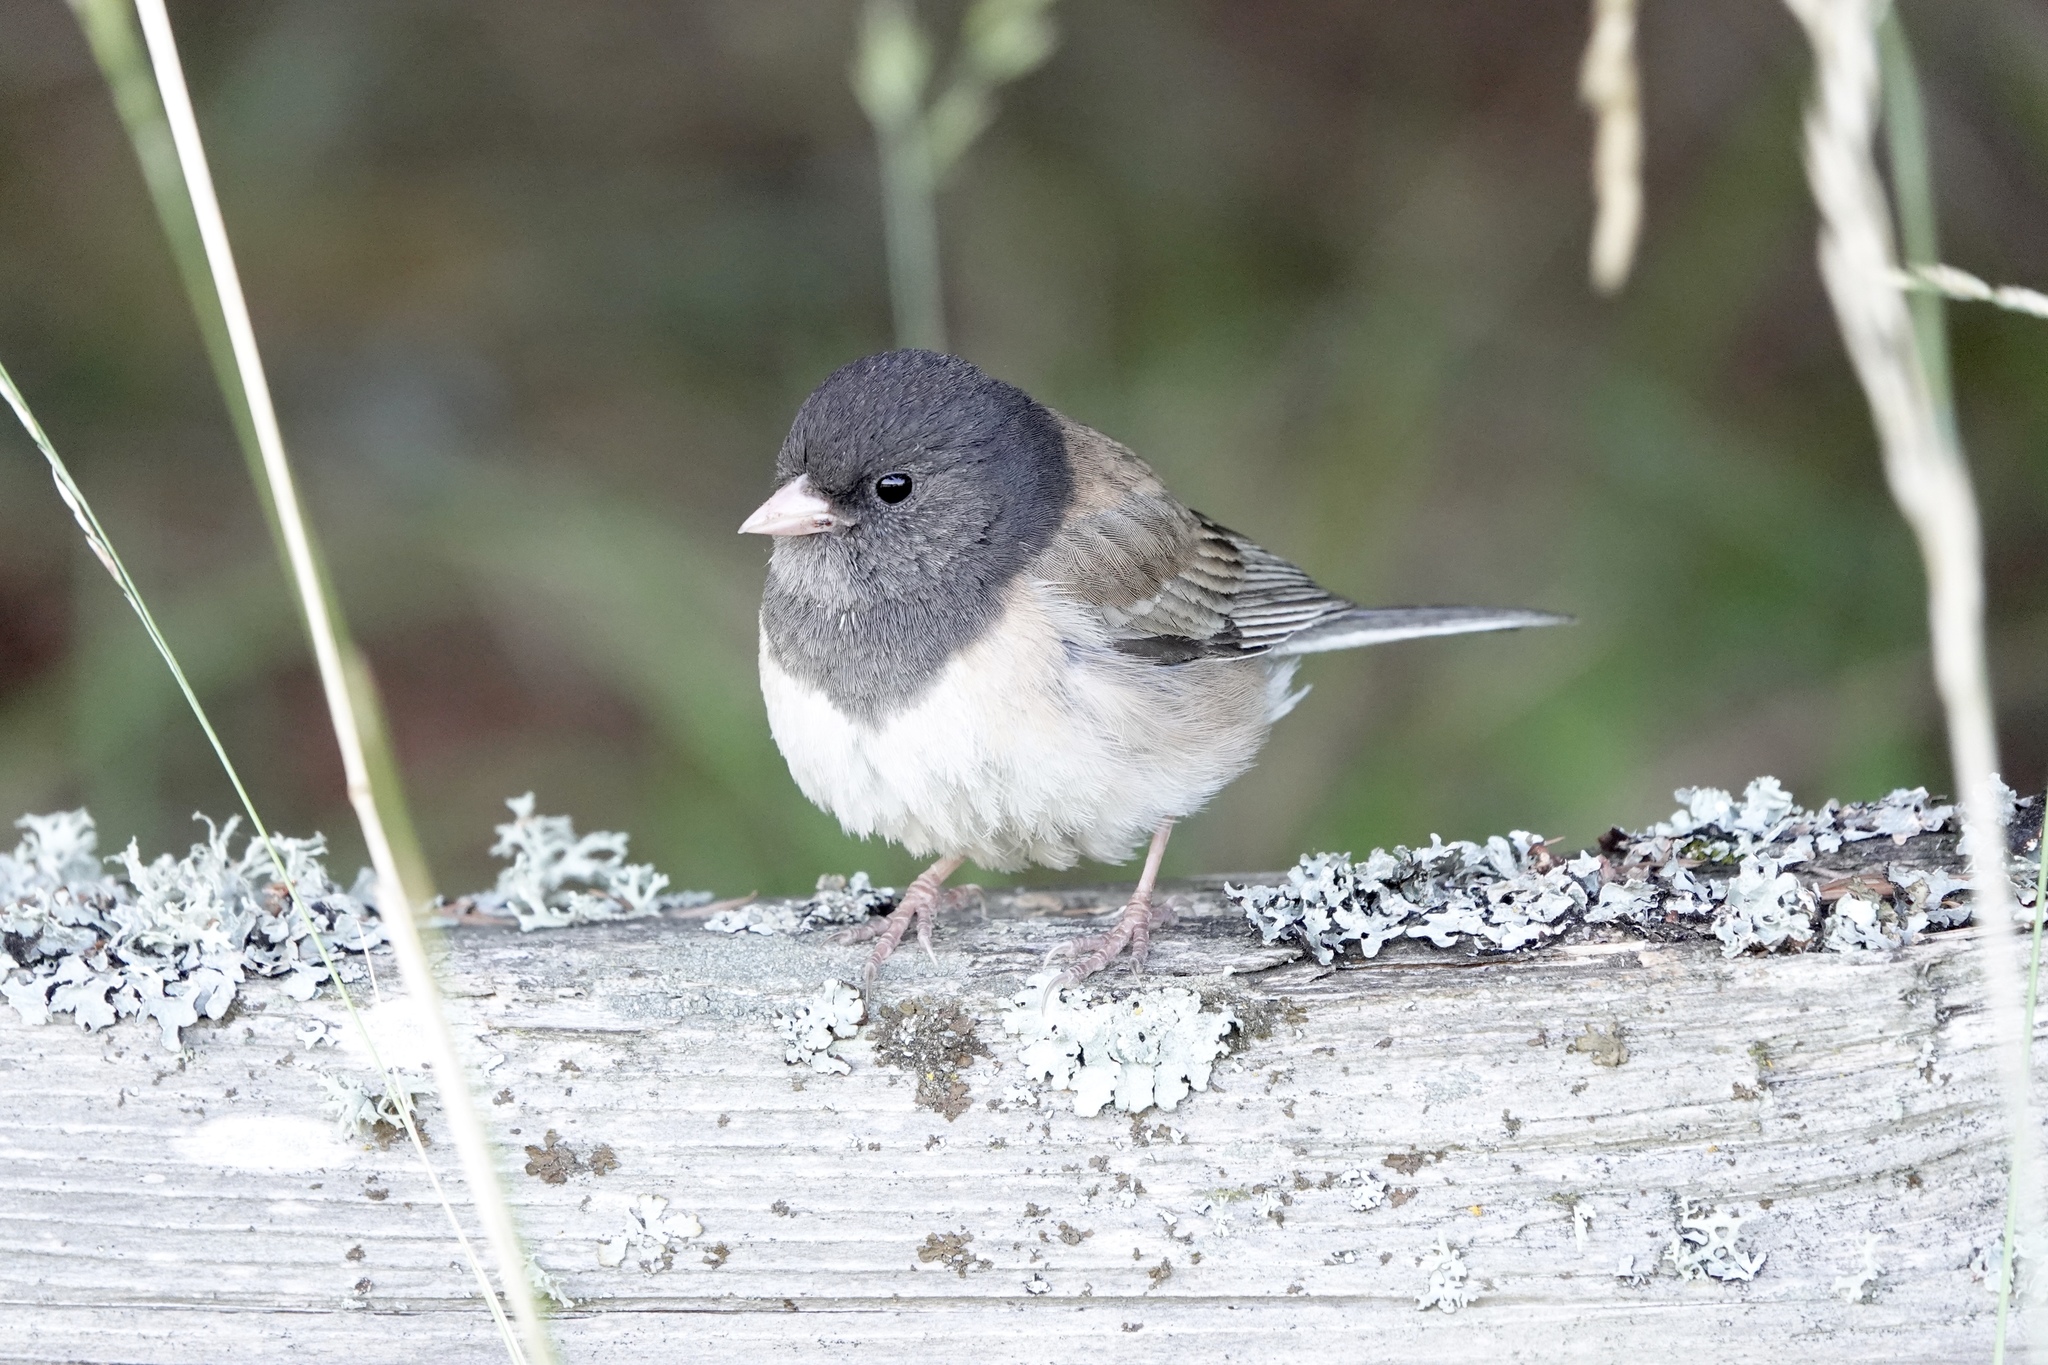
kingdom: Animalia
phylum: Chordata
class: Aves
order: Passeriformes
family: Passerellidae
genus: Junco
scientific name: Junco hyemalis
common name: Dark-eyed junco
